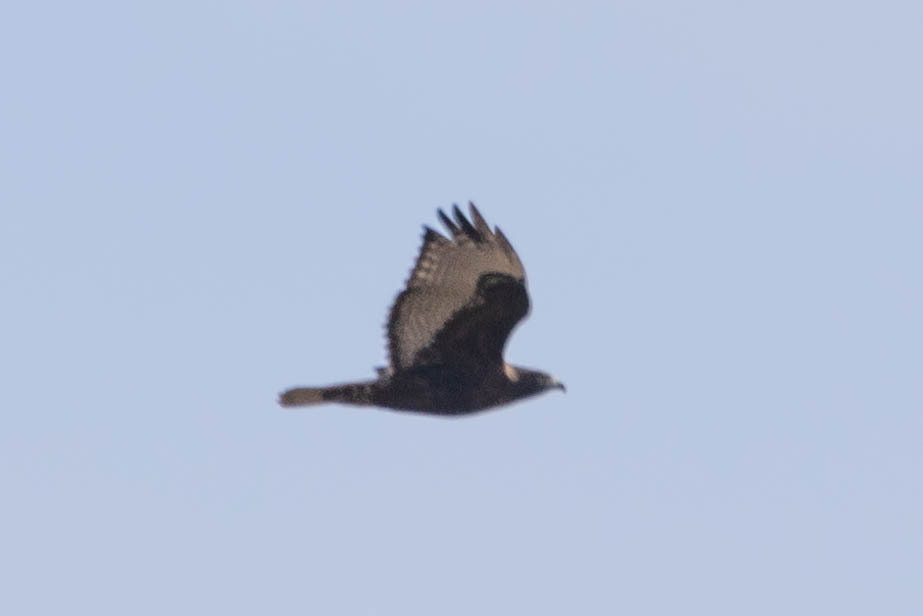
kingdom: Animalia
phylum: Chordata
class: Aves
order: Accipitriformes
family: Accipitridae
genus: Buteo
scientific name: Buteo jamaicensis
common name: Red-tailed hawk
